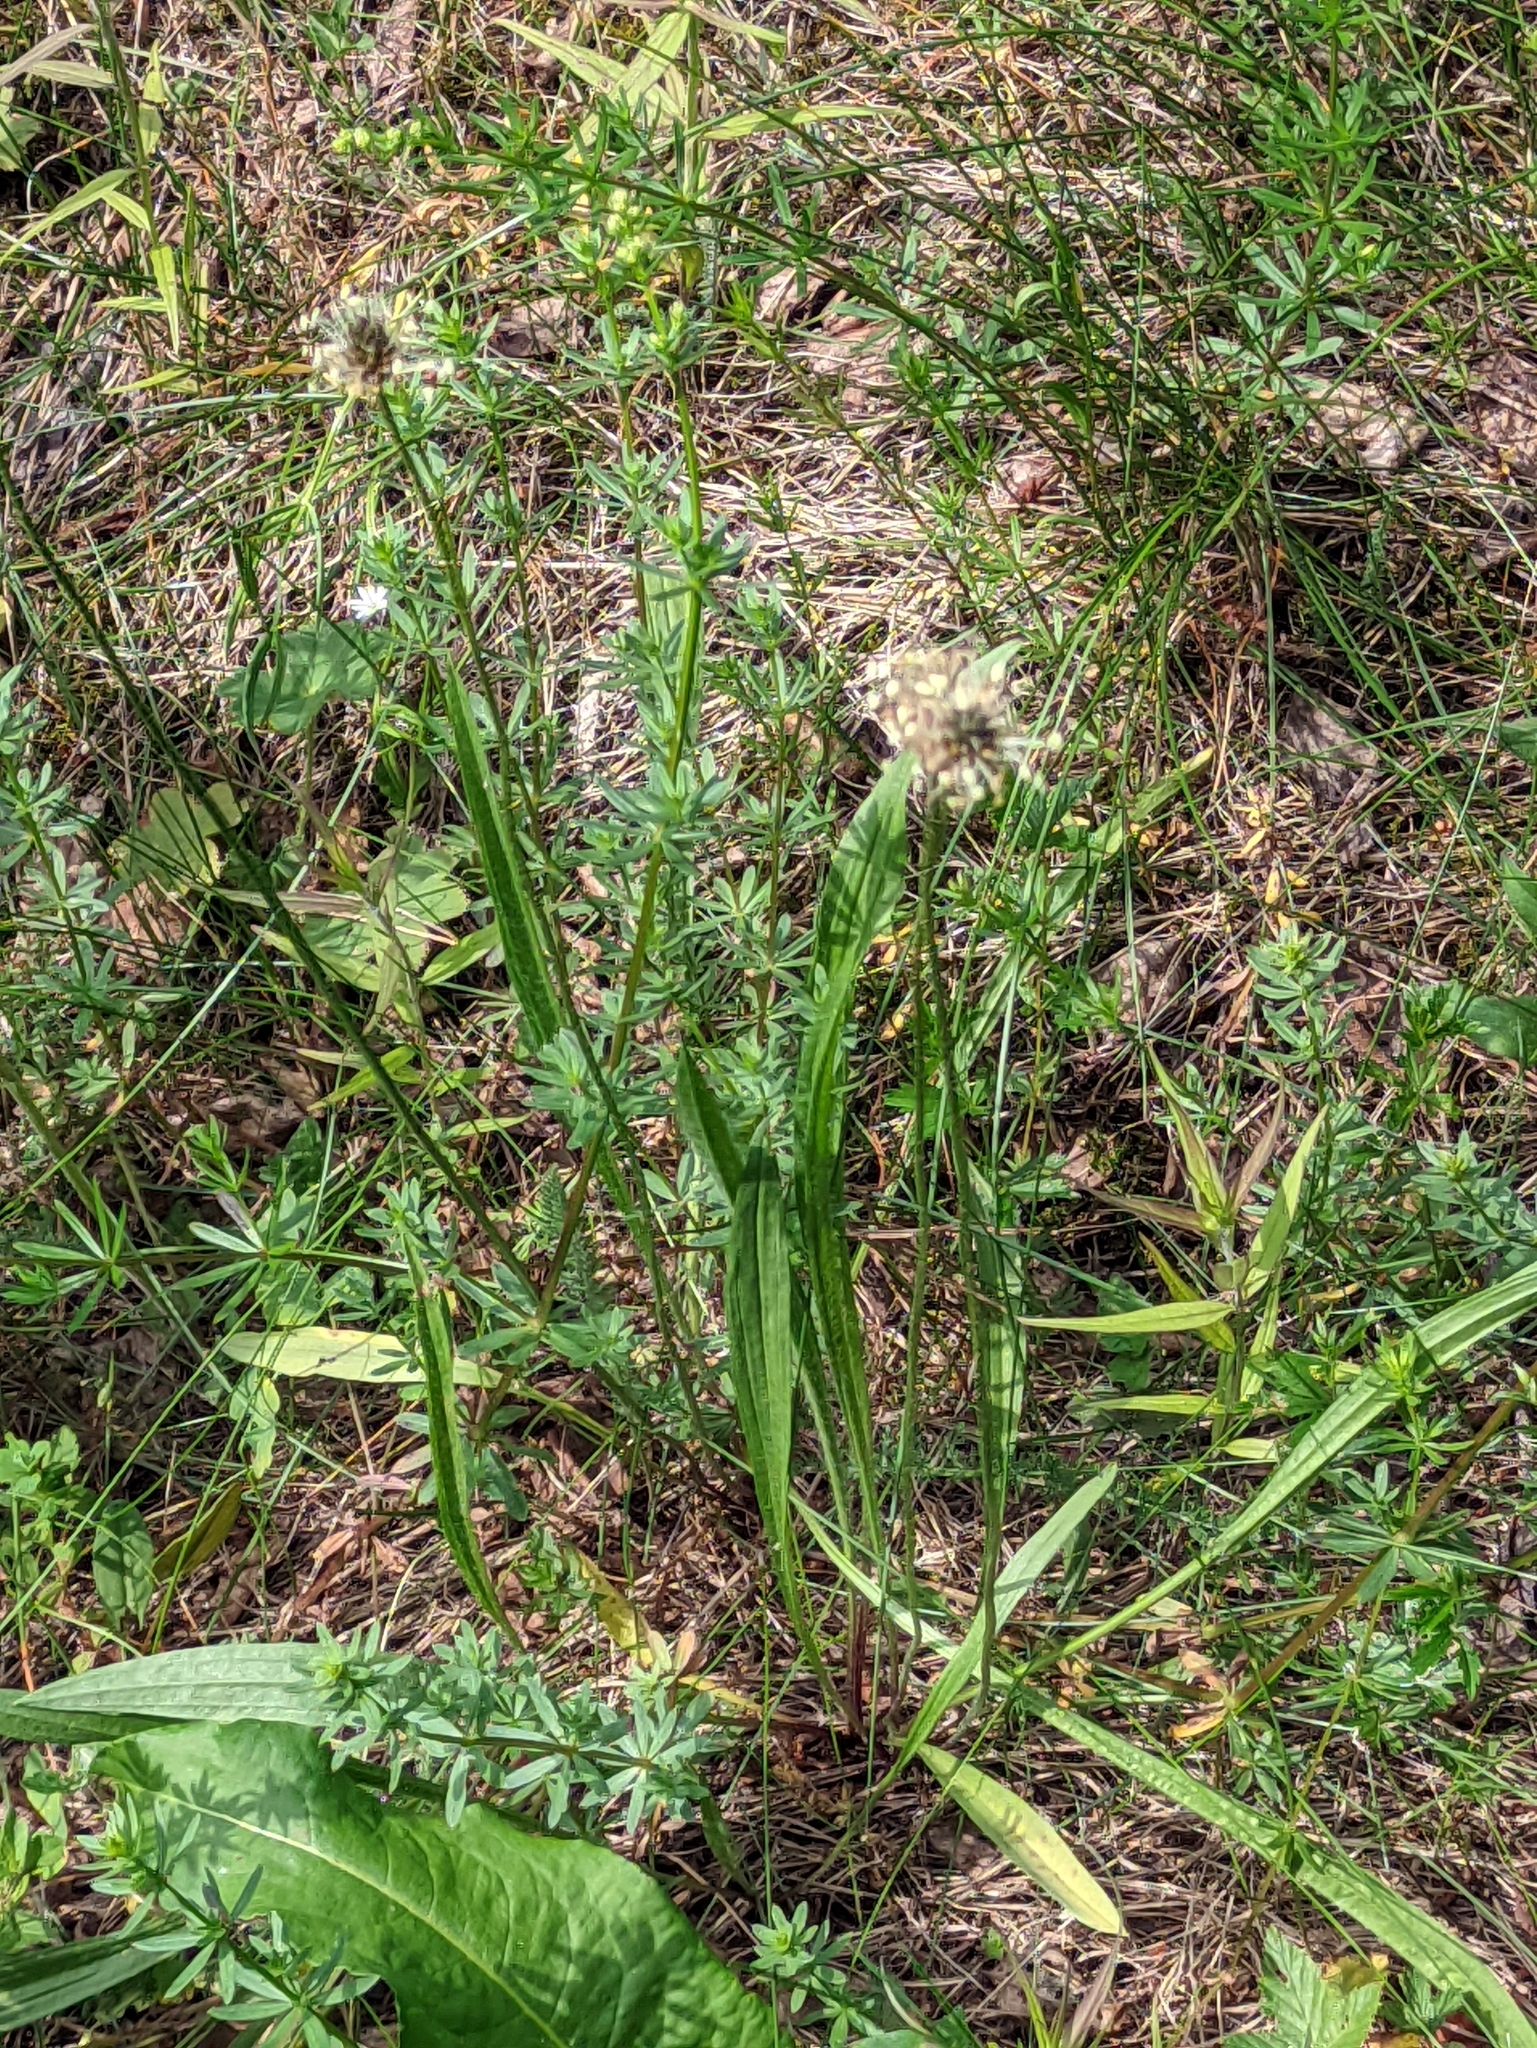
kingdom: Plantae
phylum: Tracheophyta
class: Magnoliopsida
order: Lamiales
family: Plantaginaceae
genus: Plantago
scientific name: Plantago lanceolata
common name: Ribwort plantain
